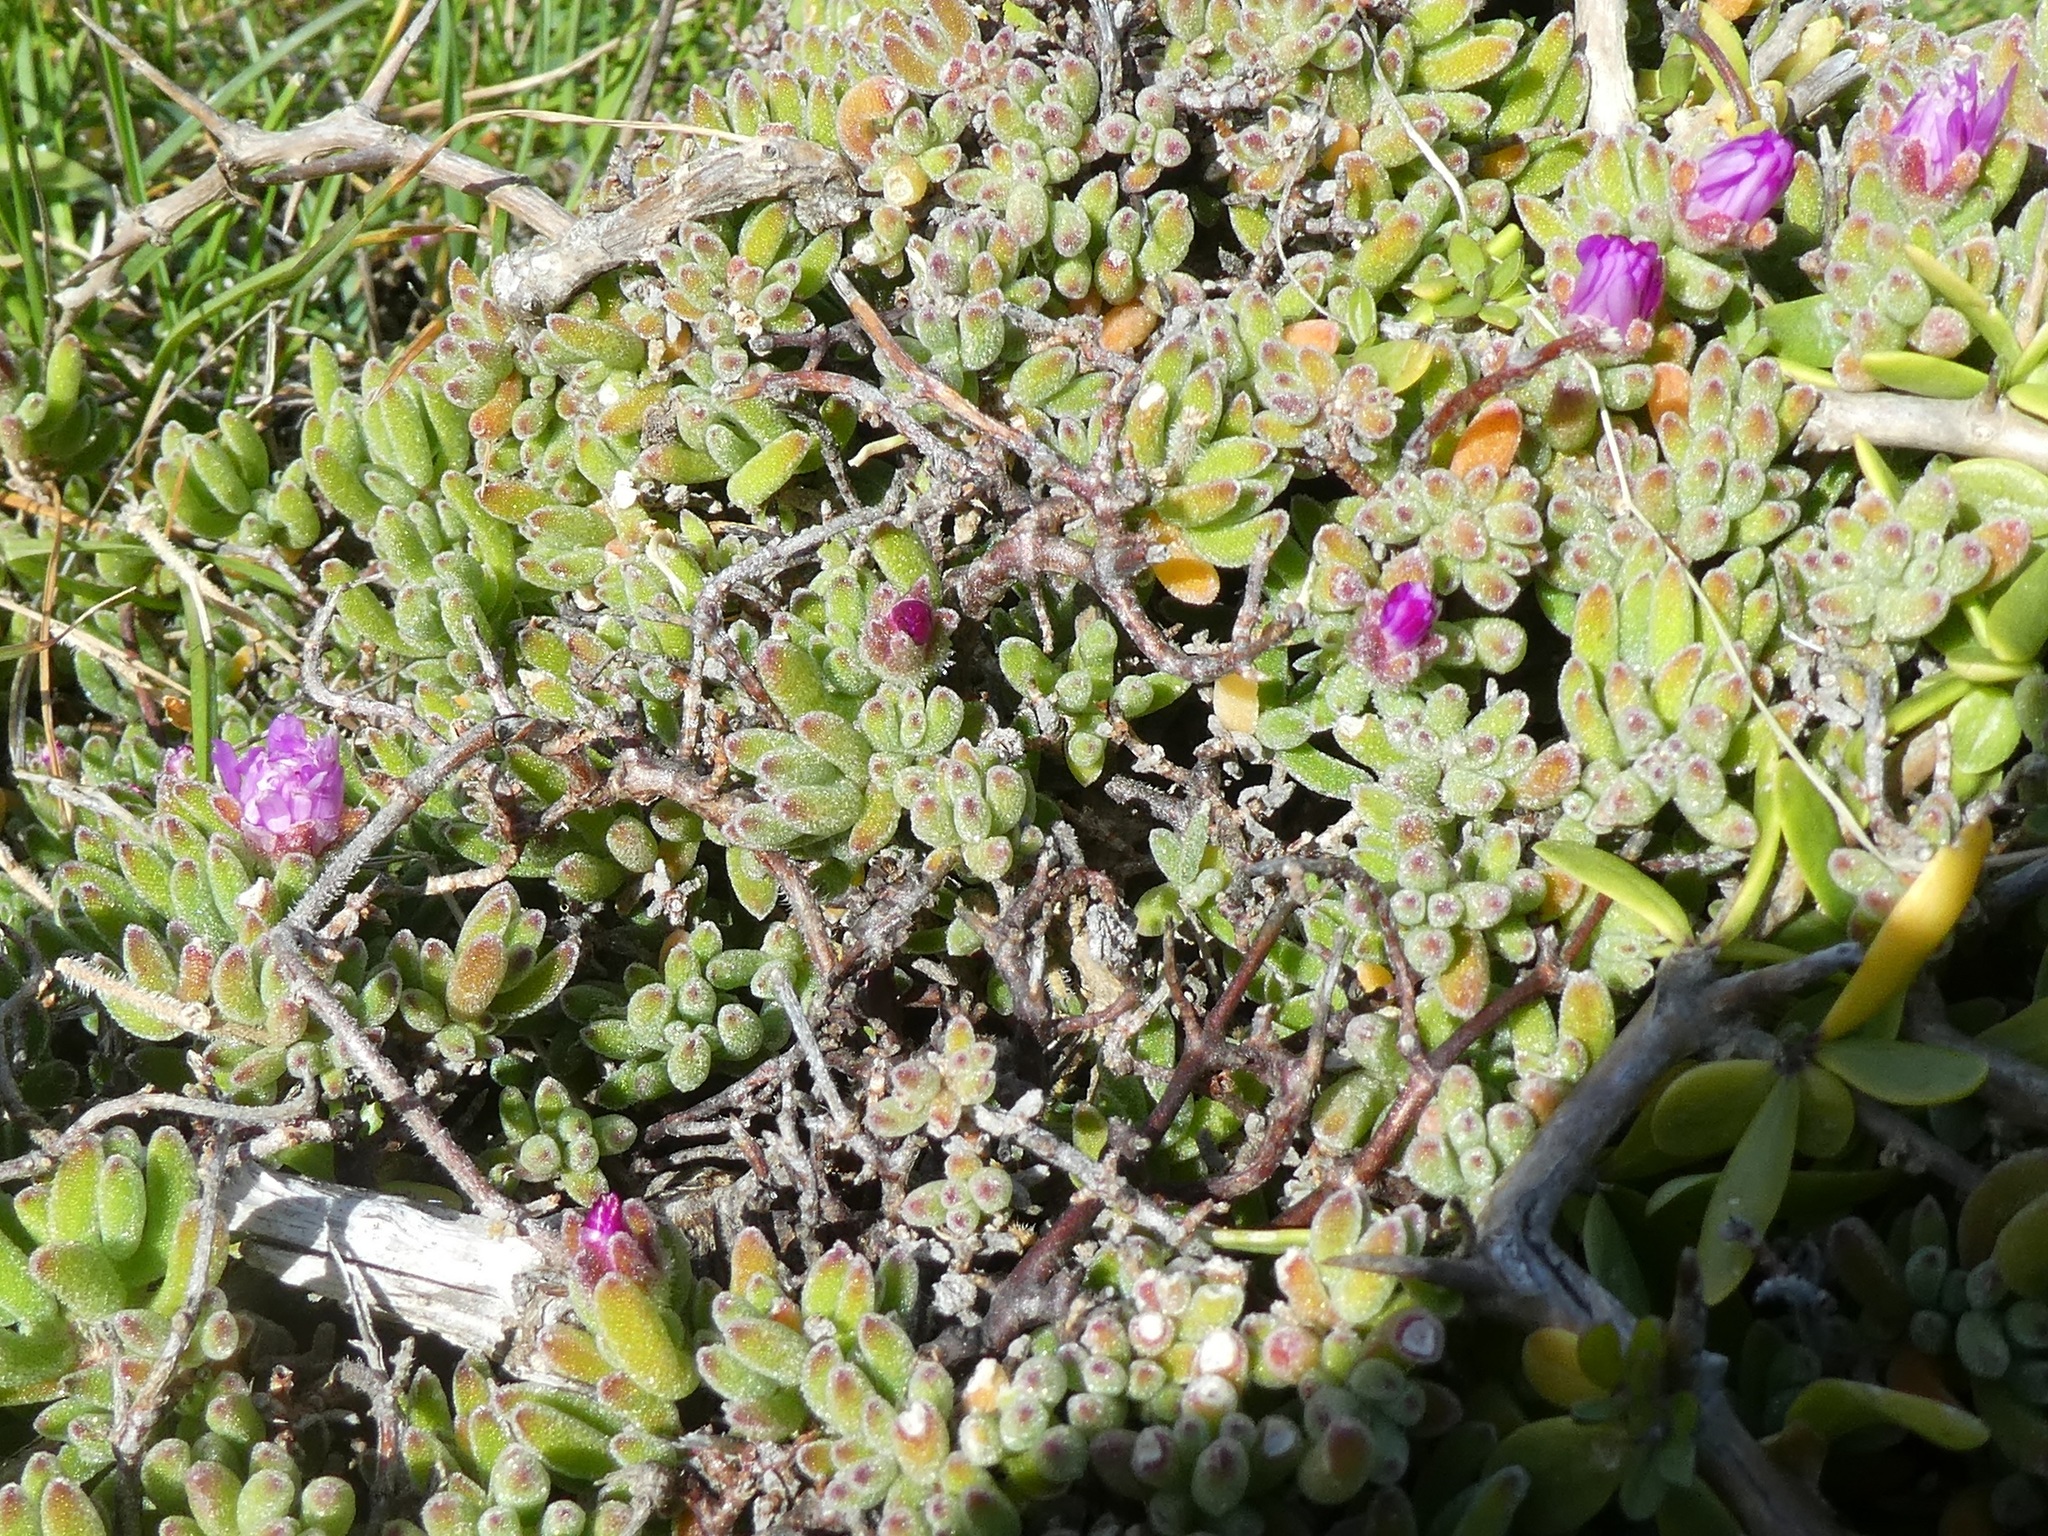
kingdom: Plantae
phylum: Tracheophyta
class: Magnoliopsida
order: Caryophyllales
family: Aizoaceae
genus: Drosanthemum
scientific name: Drosanthemum floribundum
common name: Pale dewplant
